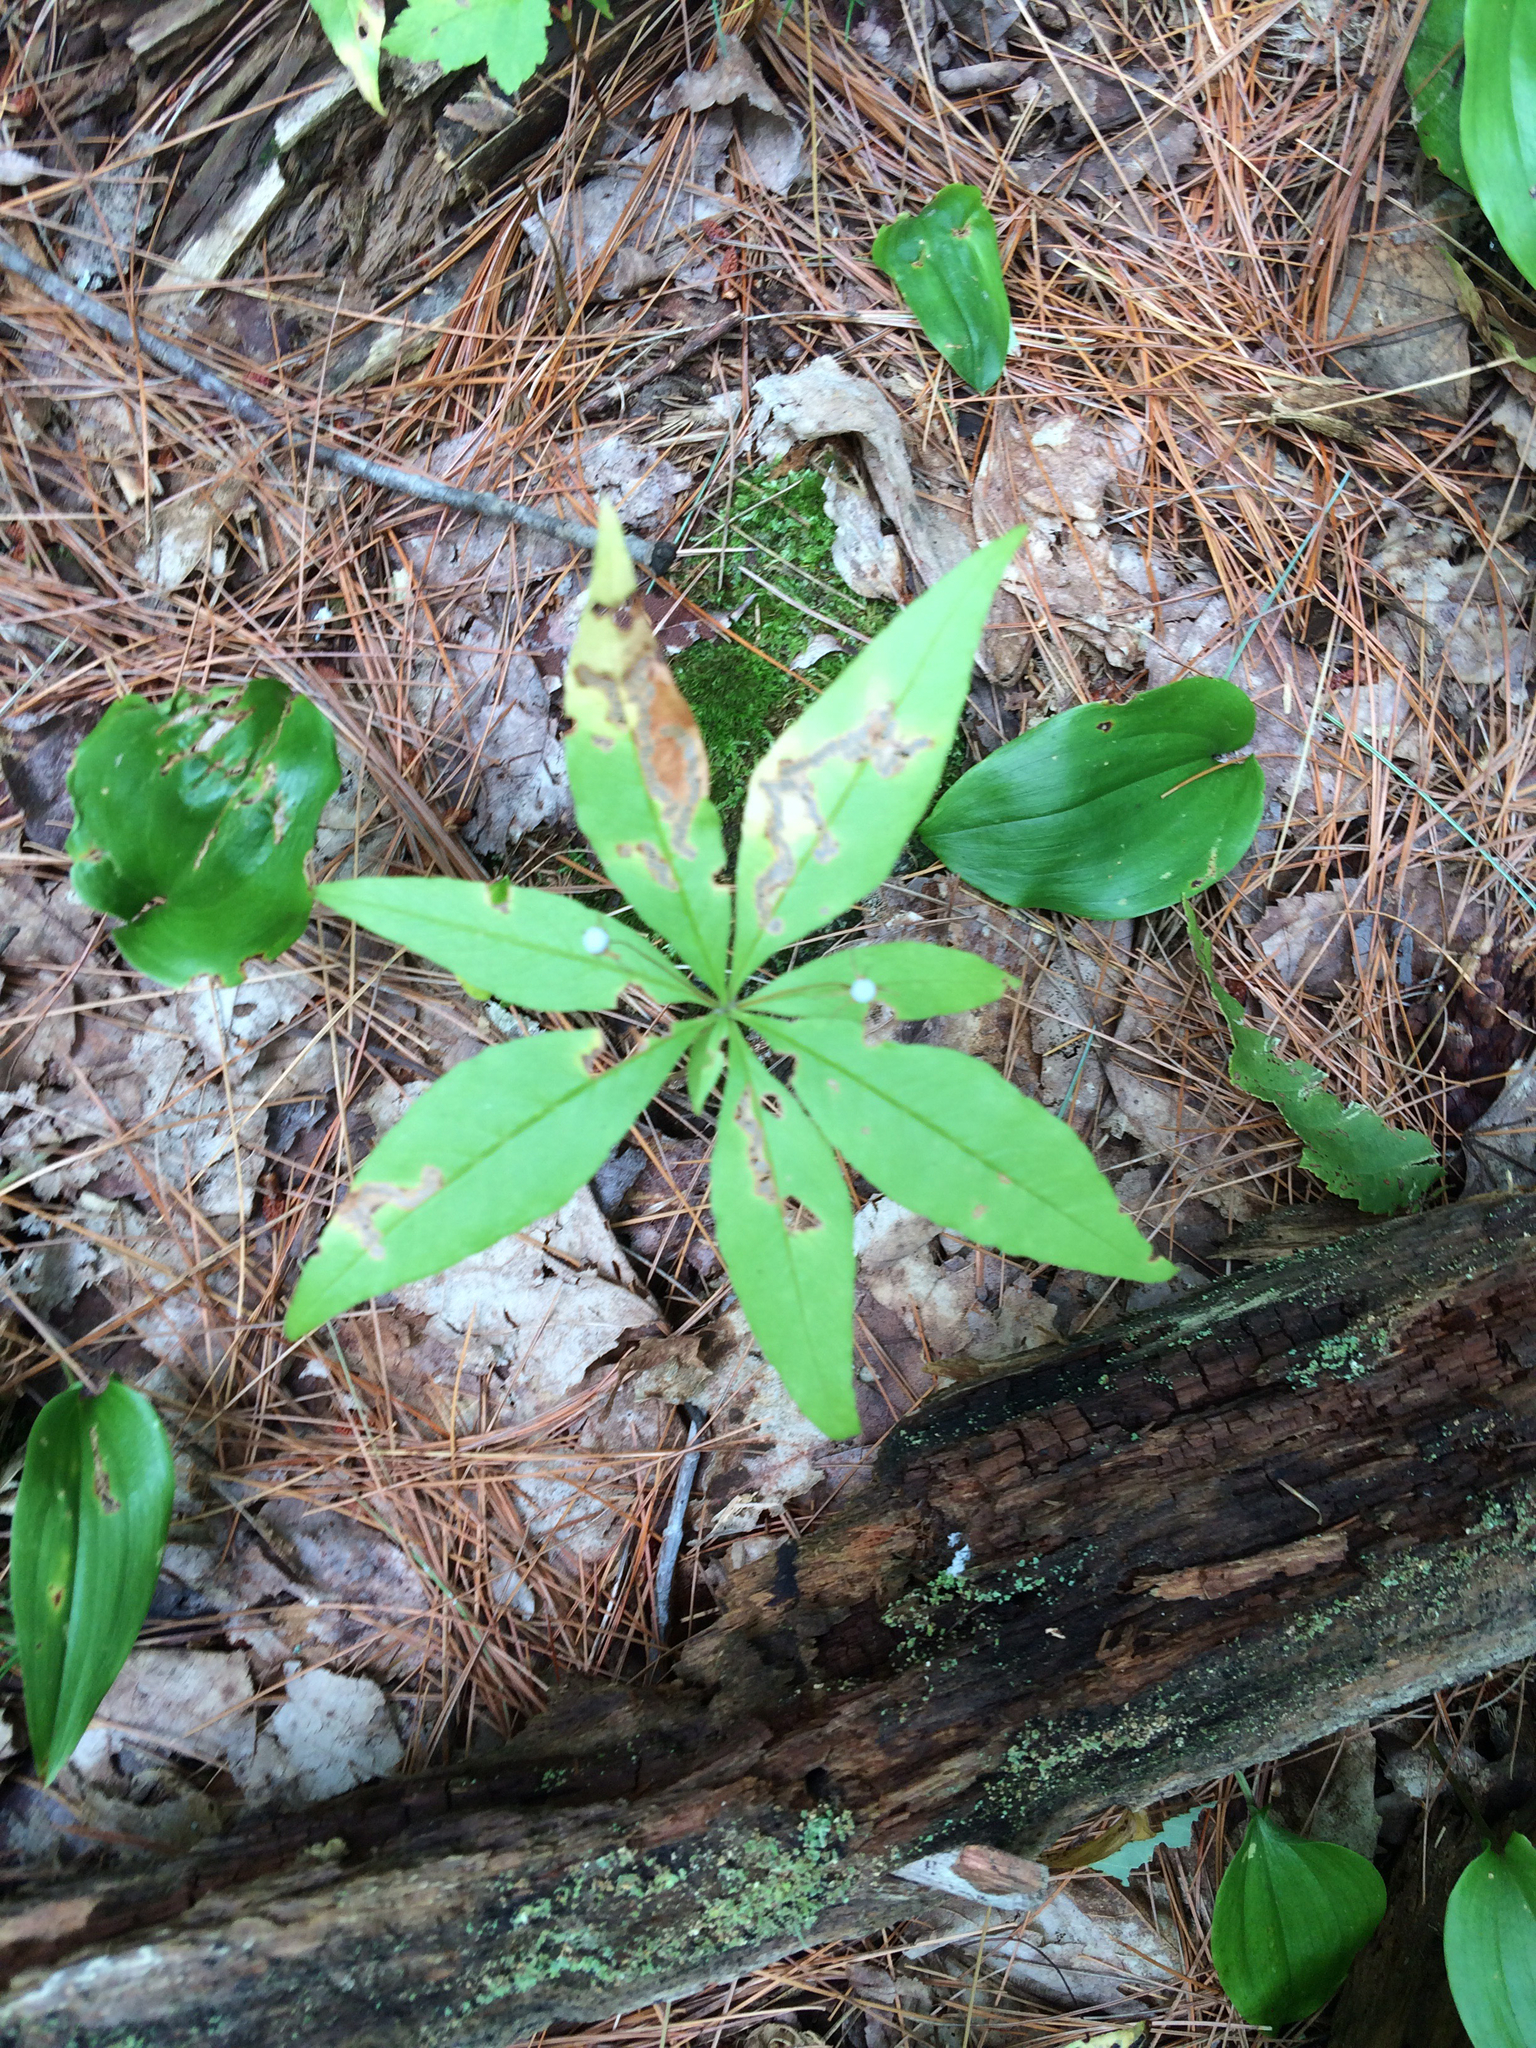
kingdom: Plantae
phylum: Tracheophyta
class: Magnoliopsida
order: Ericales
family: Primulaceae
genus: Lysimachia
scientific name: Lysimachia borealis
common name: American starflower
